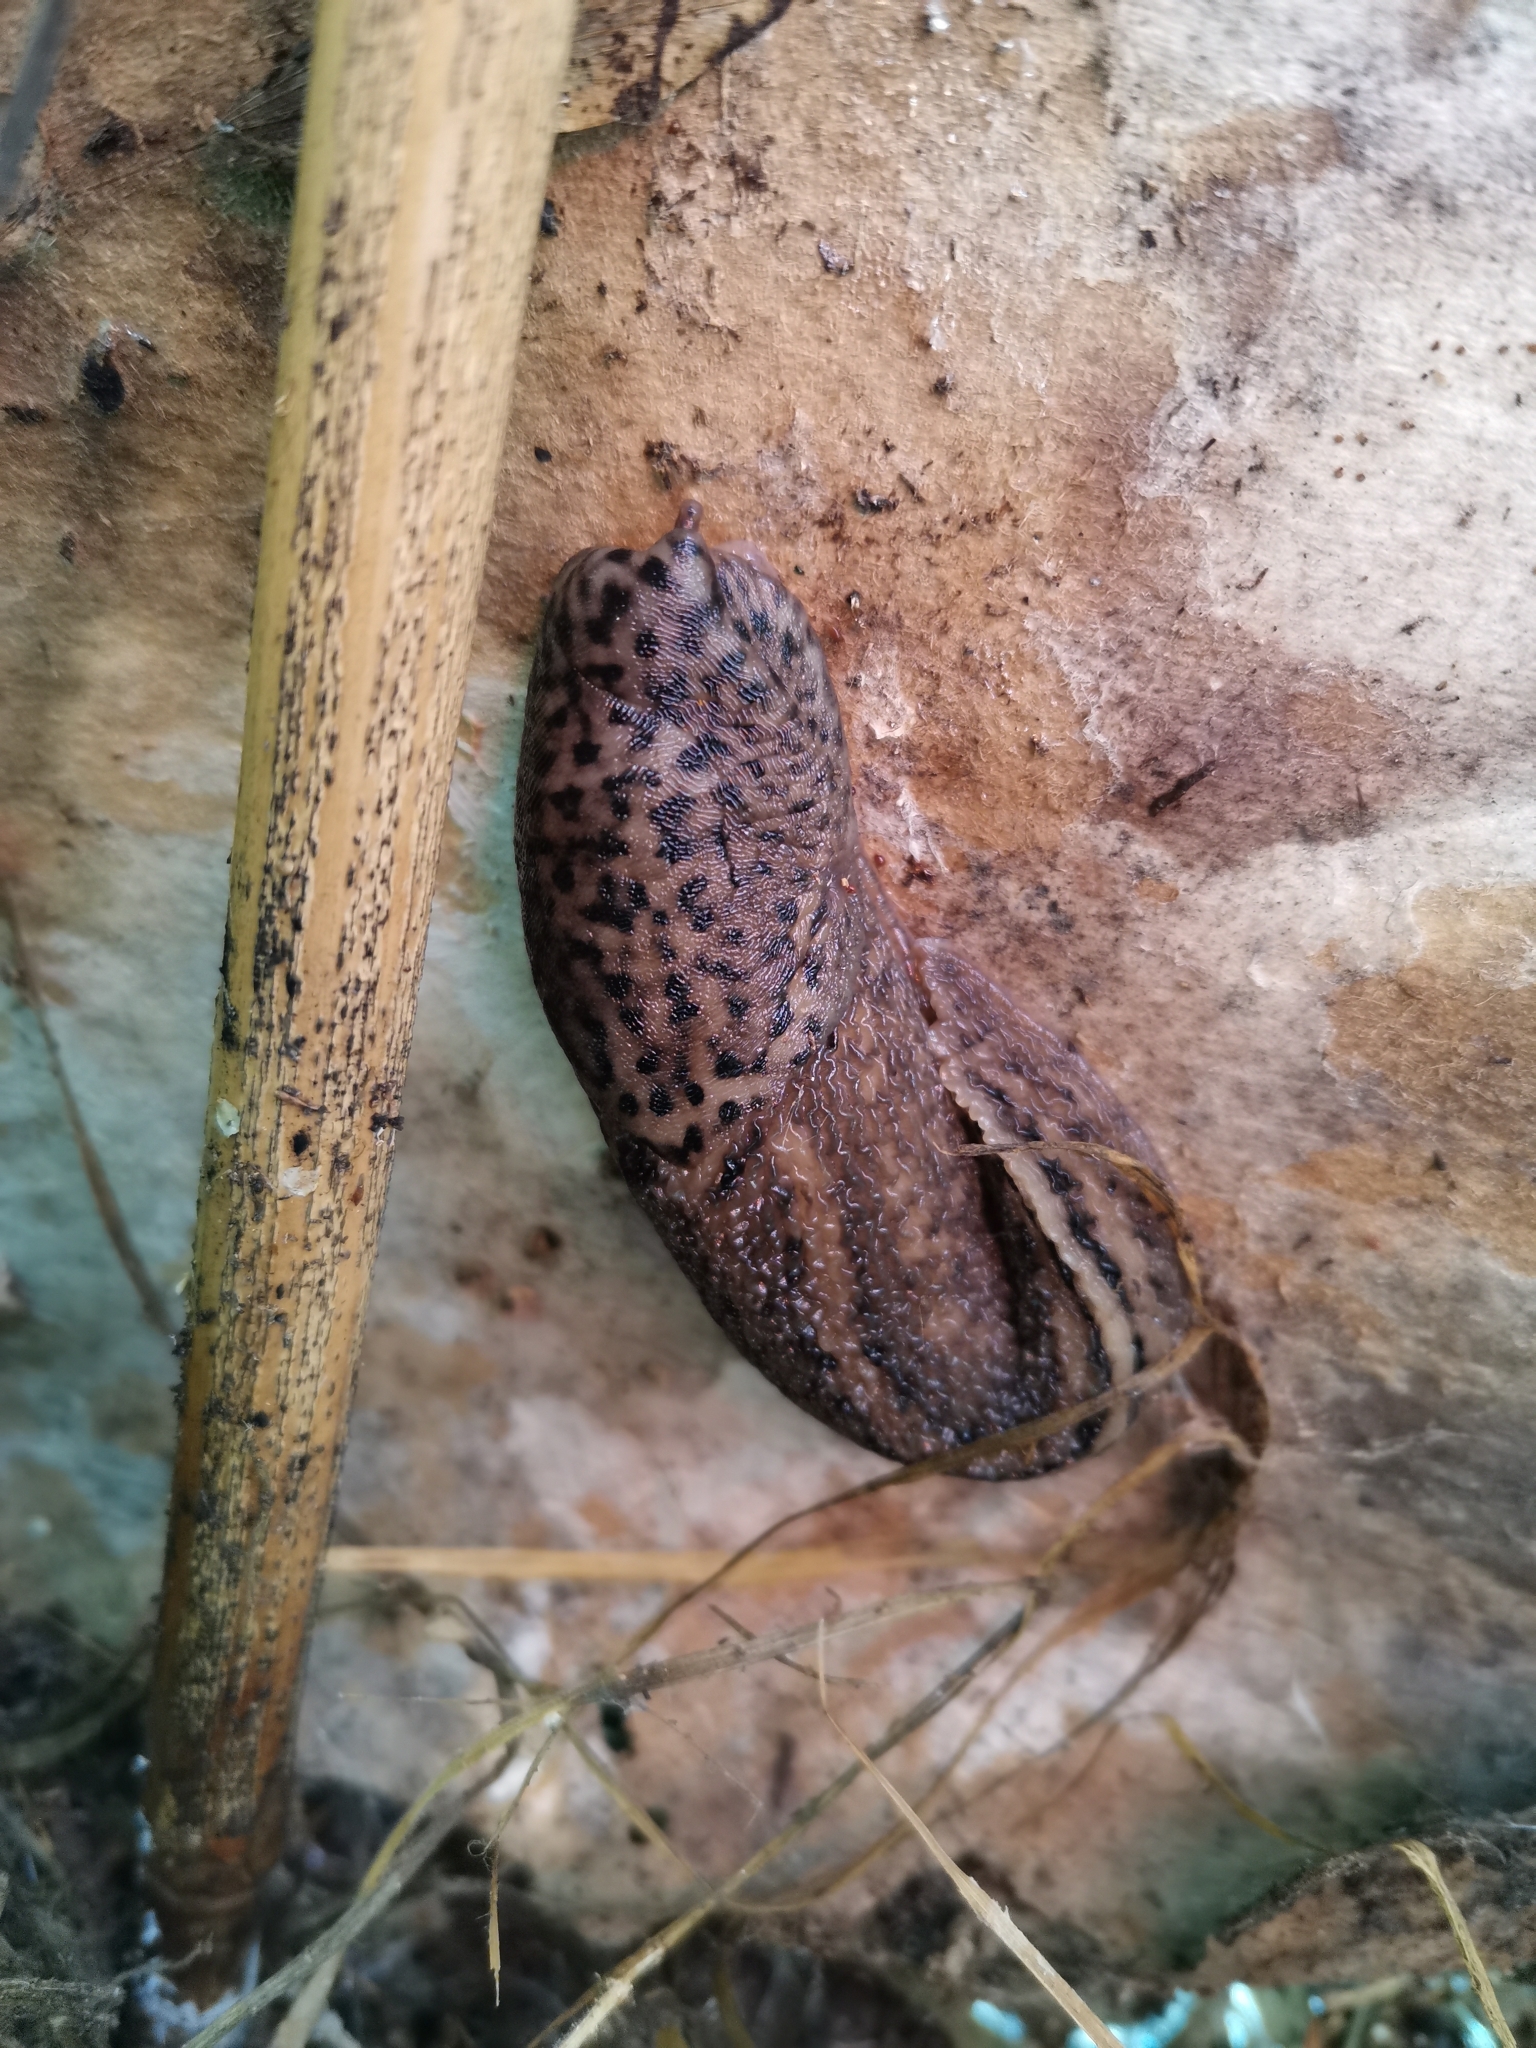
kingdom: Animalia
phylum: Mollusca
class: Gastropoda
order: Stylommatophora
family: Limacidae
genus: Limax
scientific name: Limax maximus
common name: Great grey slug
